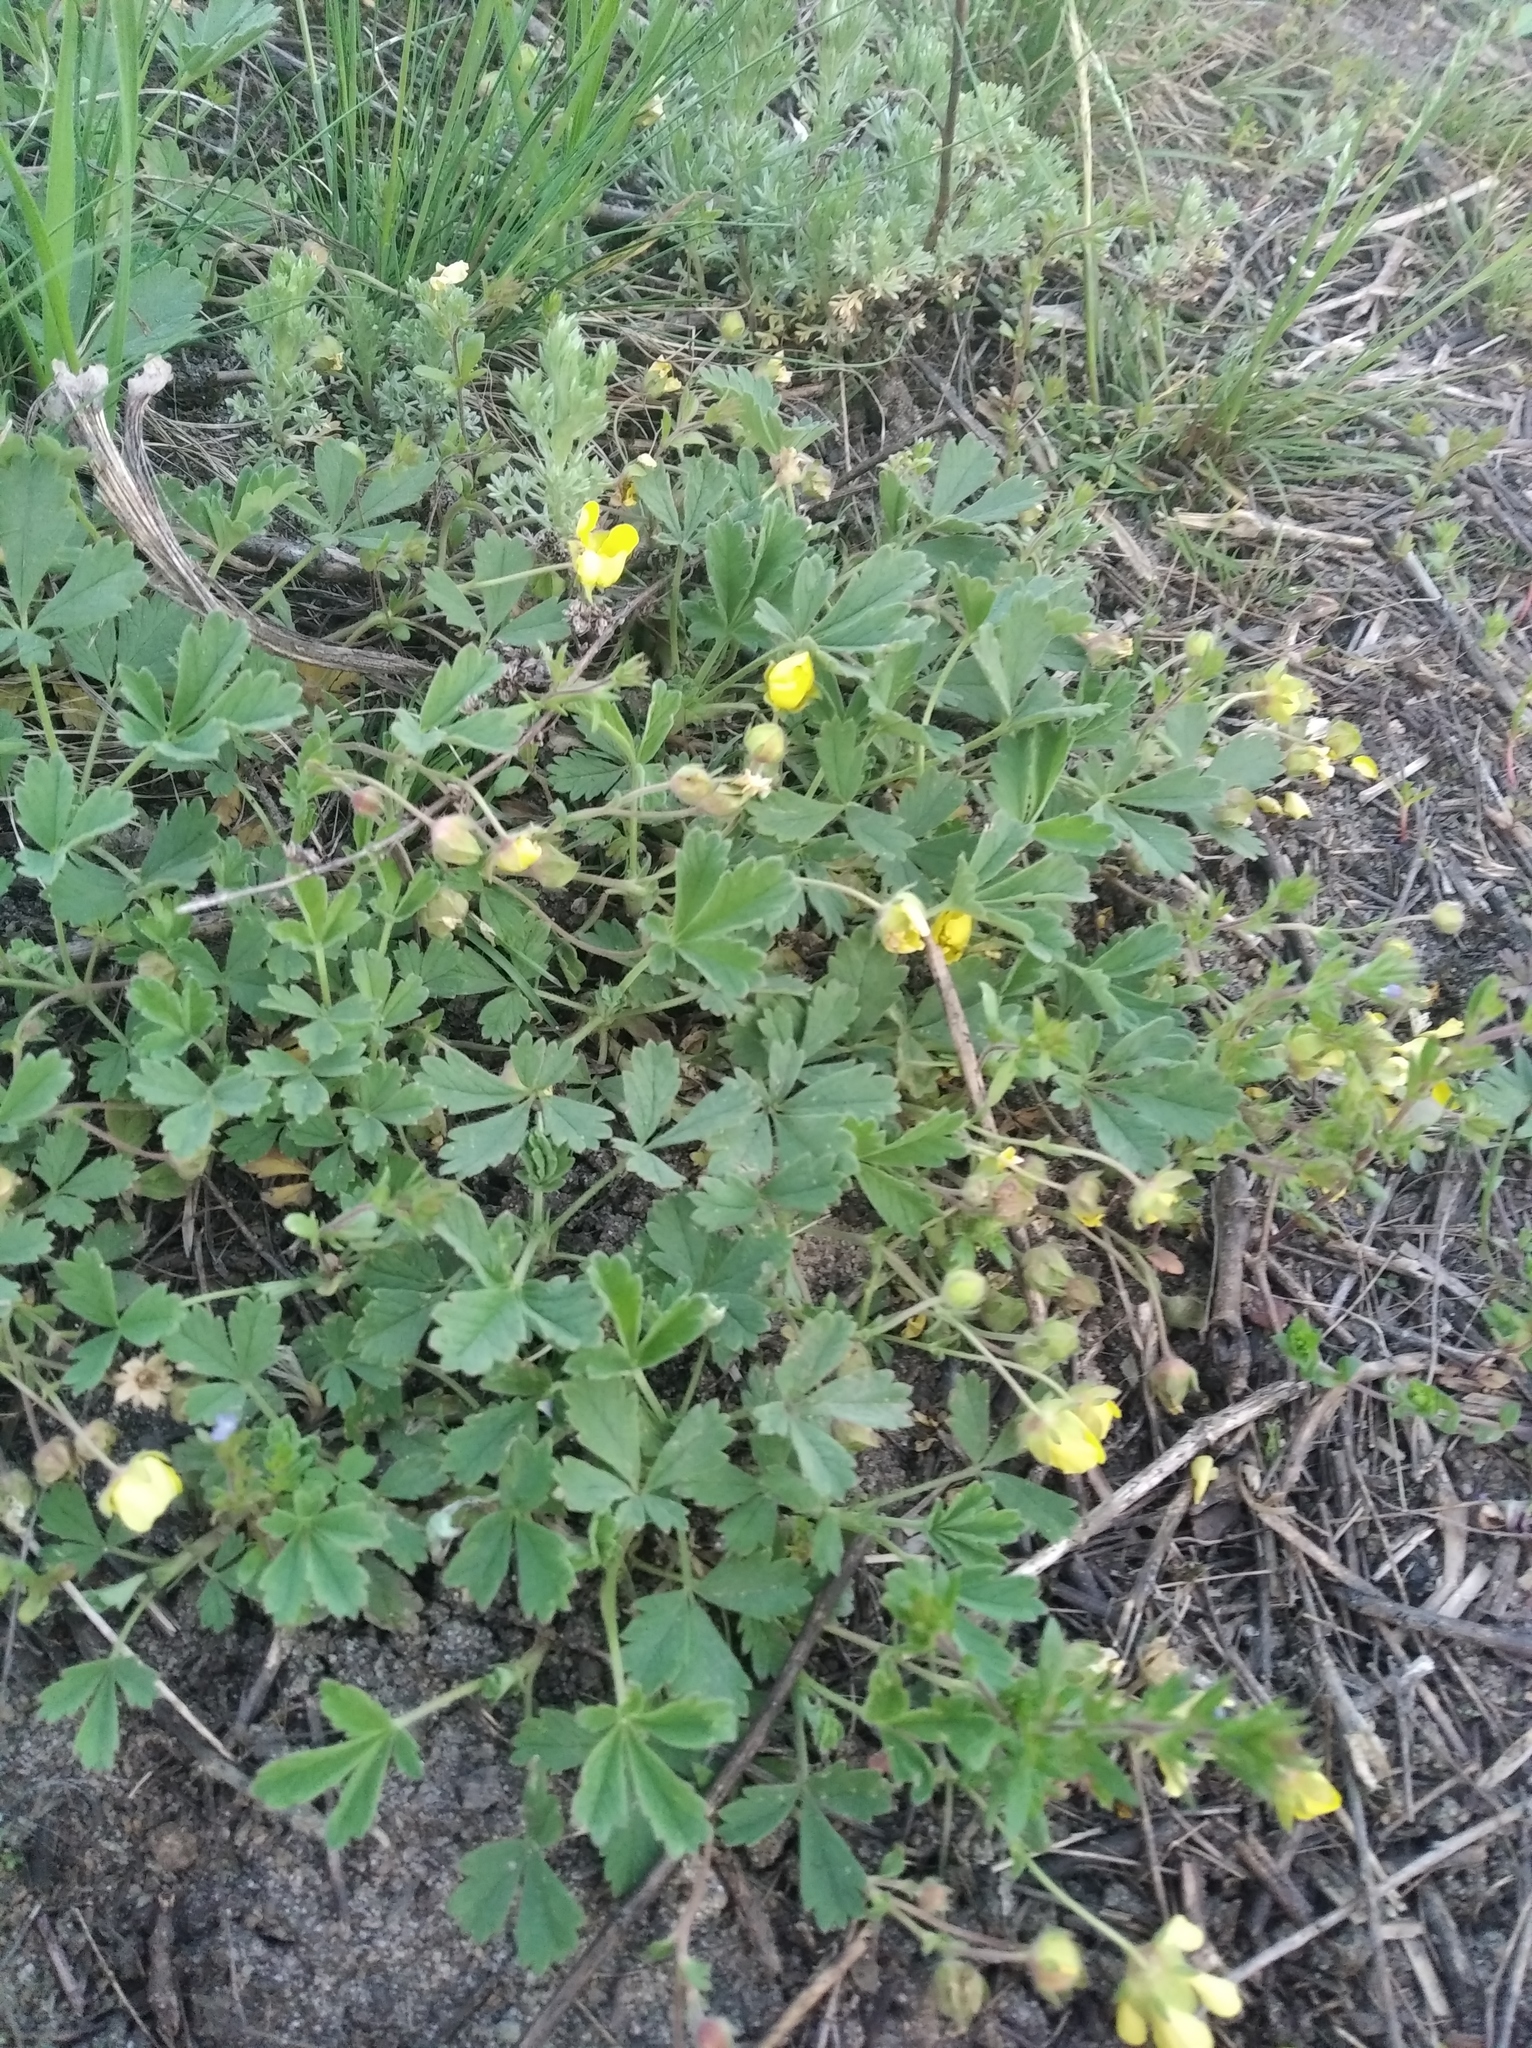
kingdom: Plantae
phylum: Tracheophyta
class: Magnoliopsida
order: Rosales
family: Rosaceae
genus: Potentilla
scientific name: Potentilla incana
